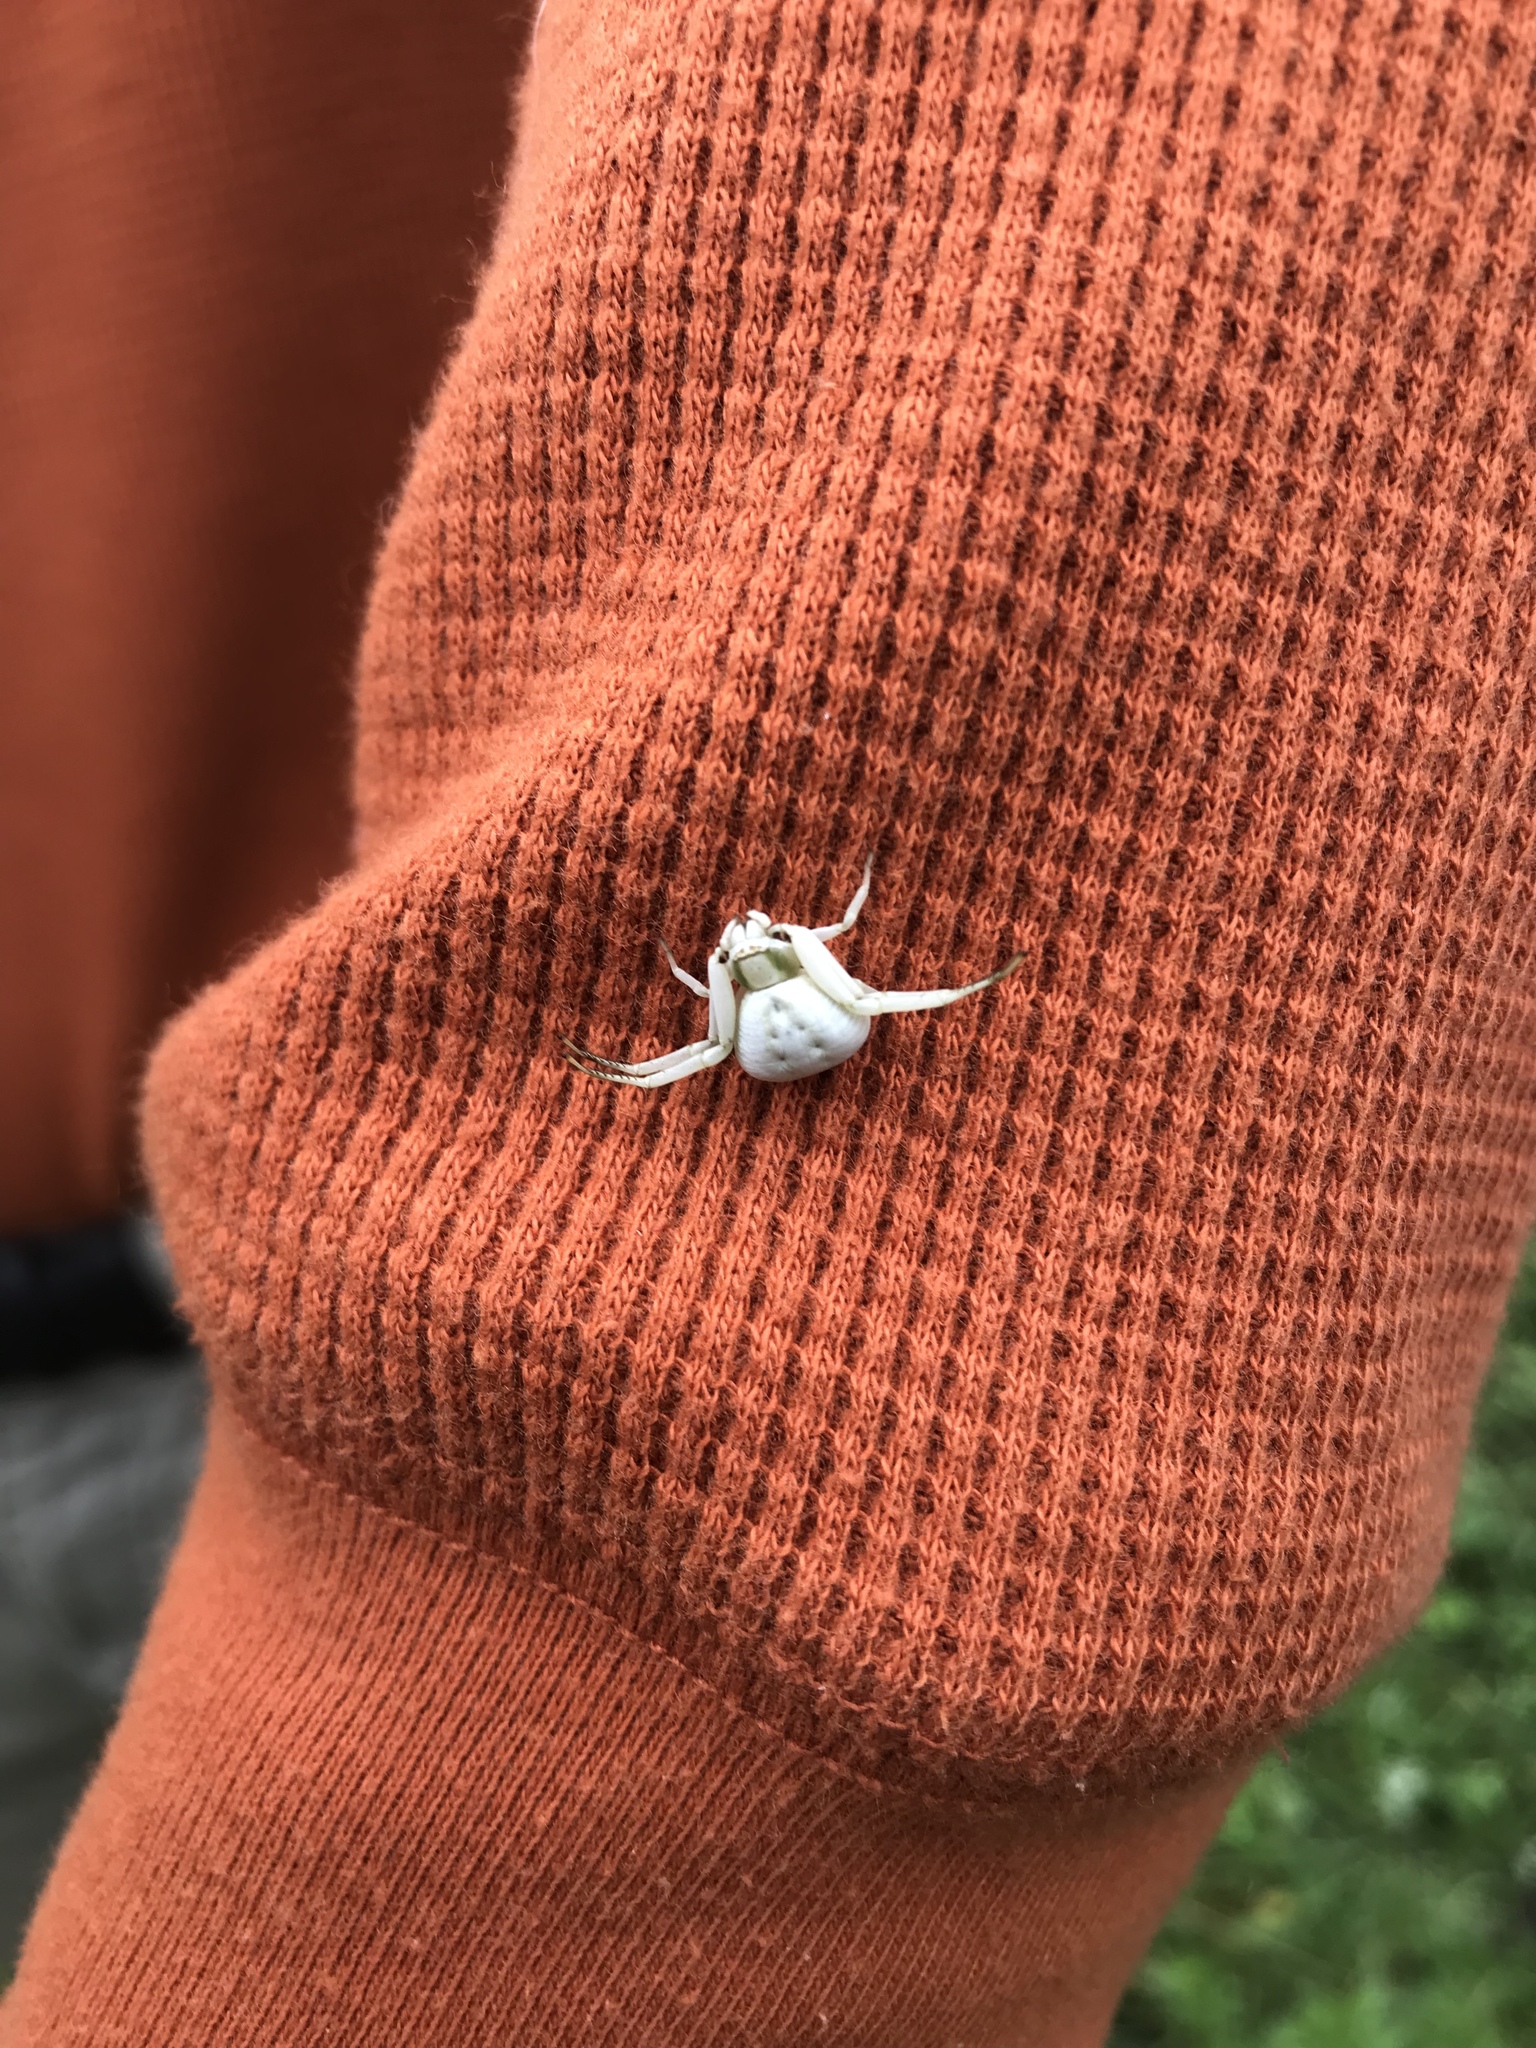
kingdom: Animalia
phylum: Arthropoda
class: Arachnida
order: Araneae
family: Thomisidae
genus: Misumenoides
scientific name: Misumenoides formosipes
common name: White-banded crab spider
